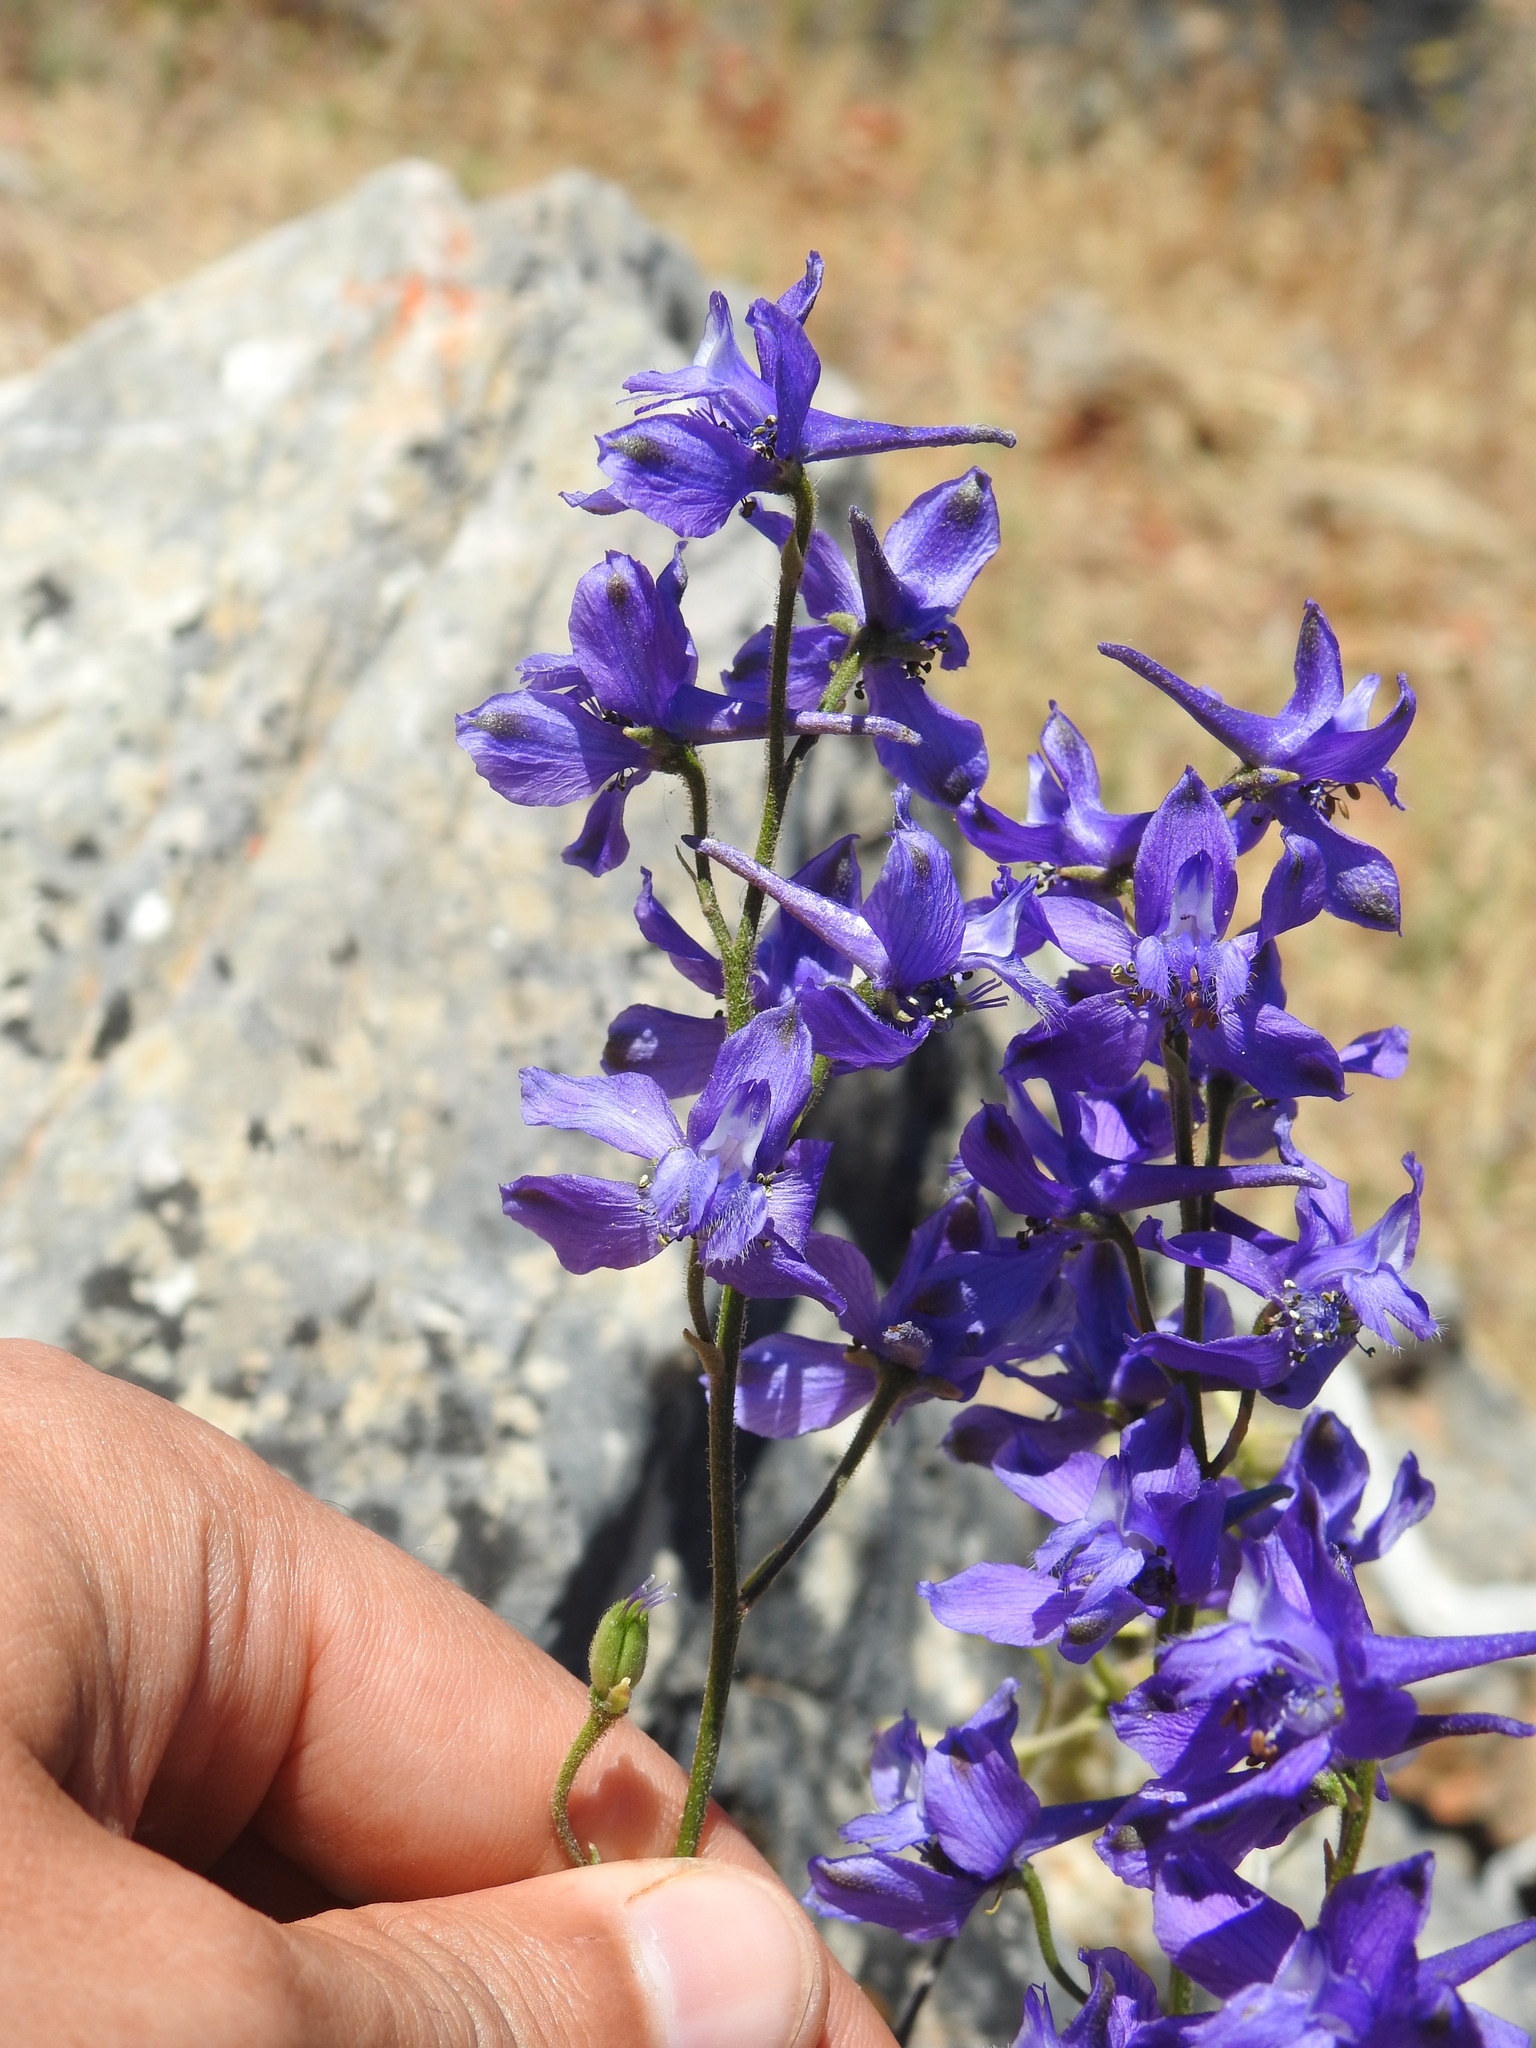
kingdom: Plantae
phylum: Tracheophyta
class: Magnoliopsida
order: Ranunculales
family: Ranunculaceae
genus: Delphinium
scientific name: Delphinium pentagynum
